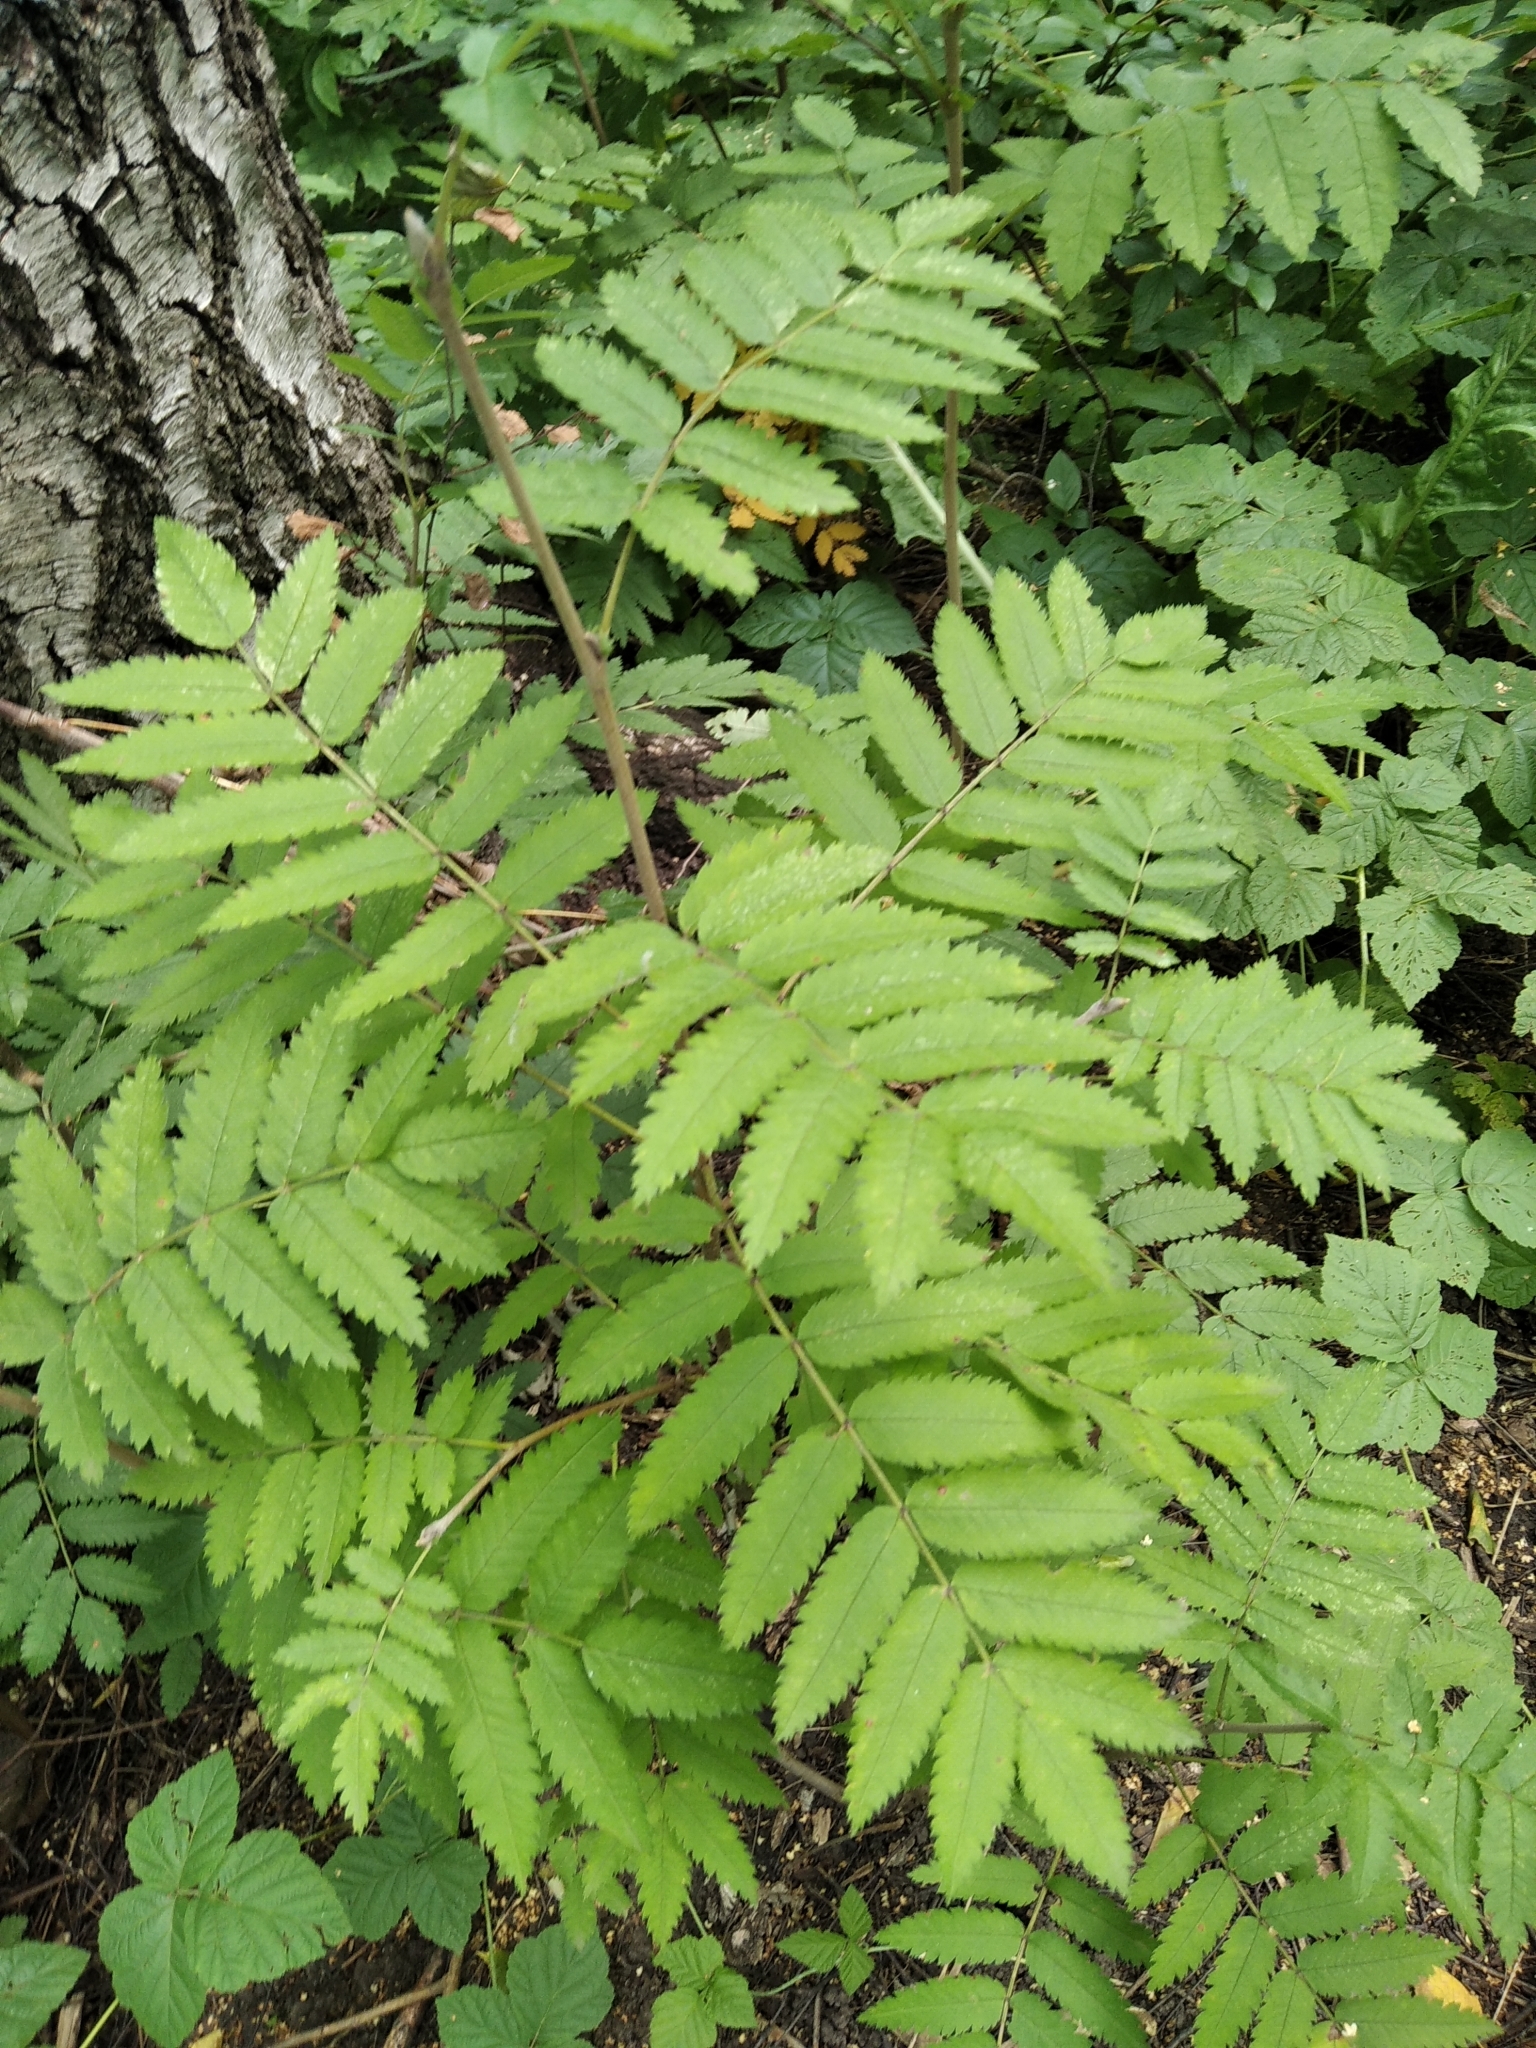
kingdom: Plantae
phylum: Tracheophyta
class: Magnoliopsida
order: Rosales
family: Rosaceae
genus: Sorbus
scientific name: Sorbus aucuparia
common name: Rowan
